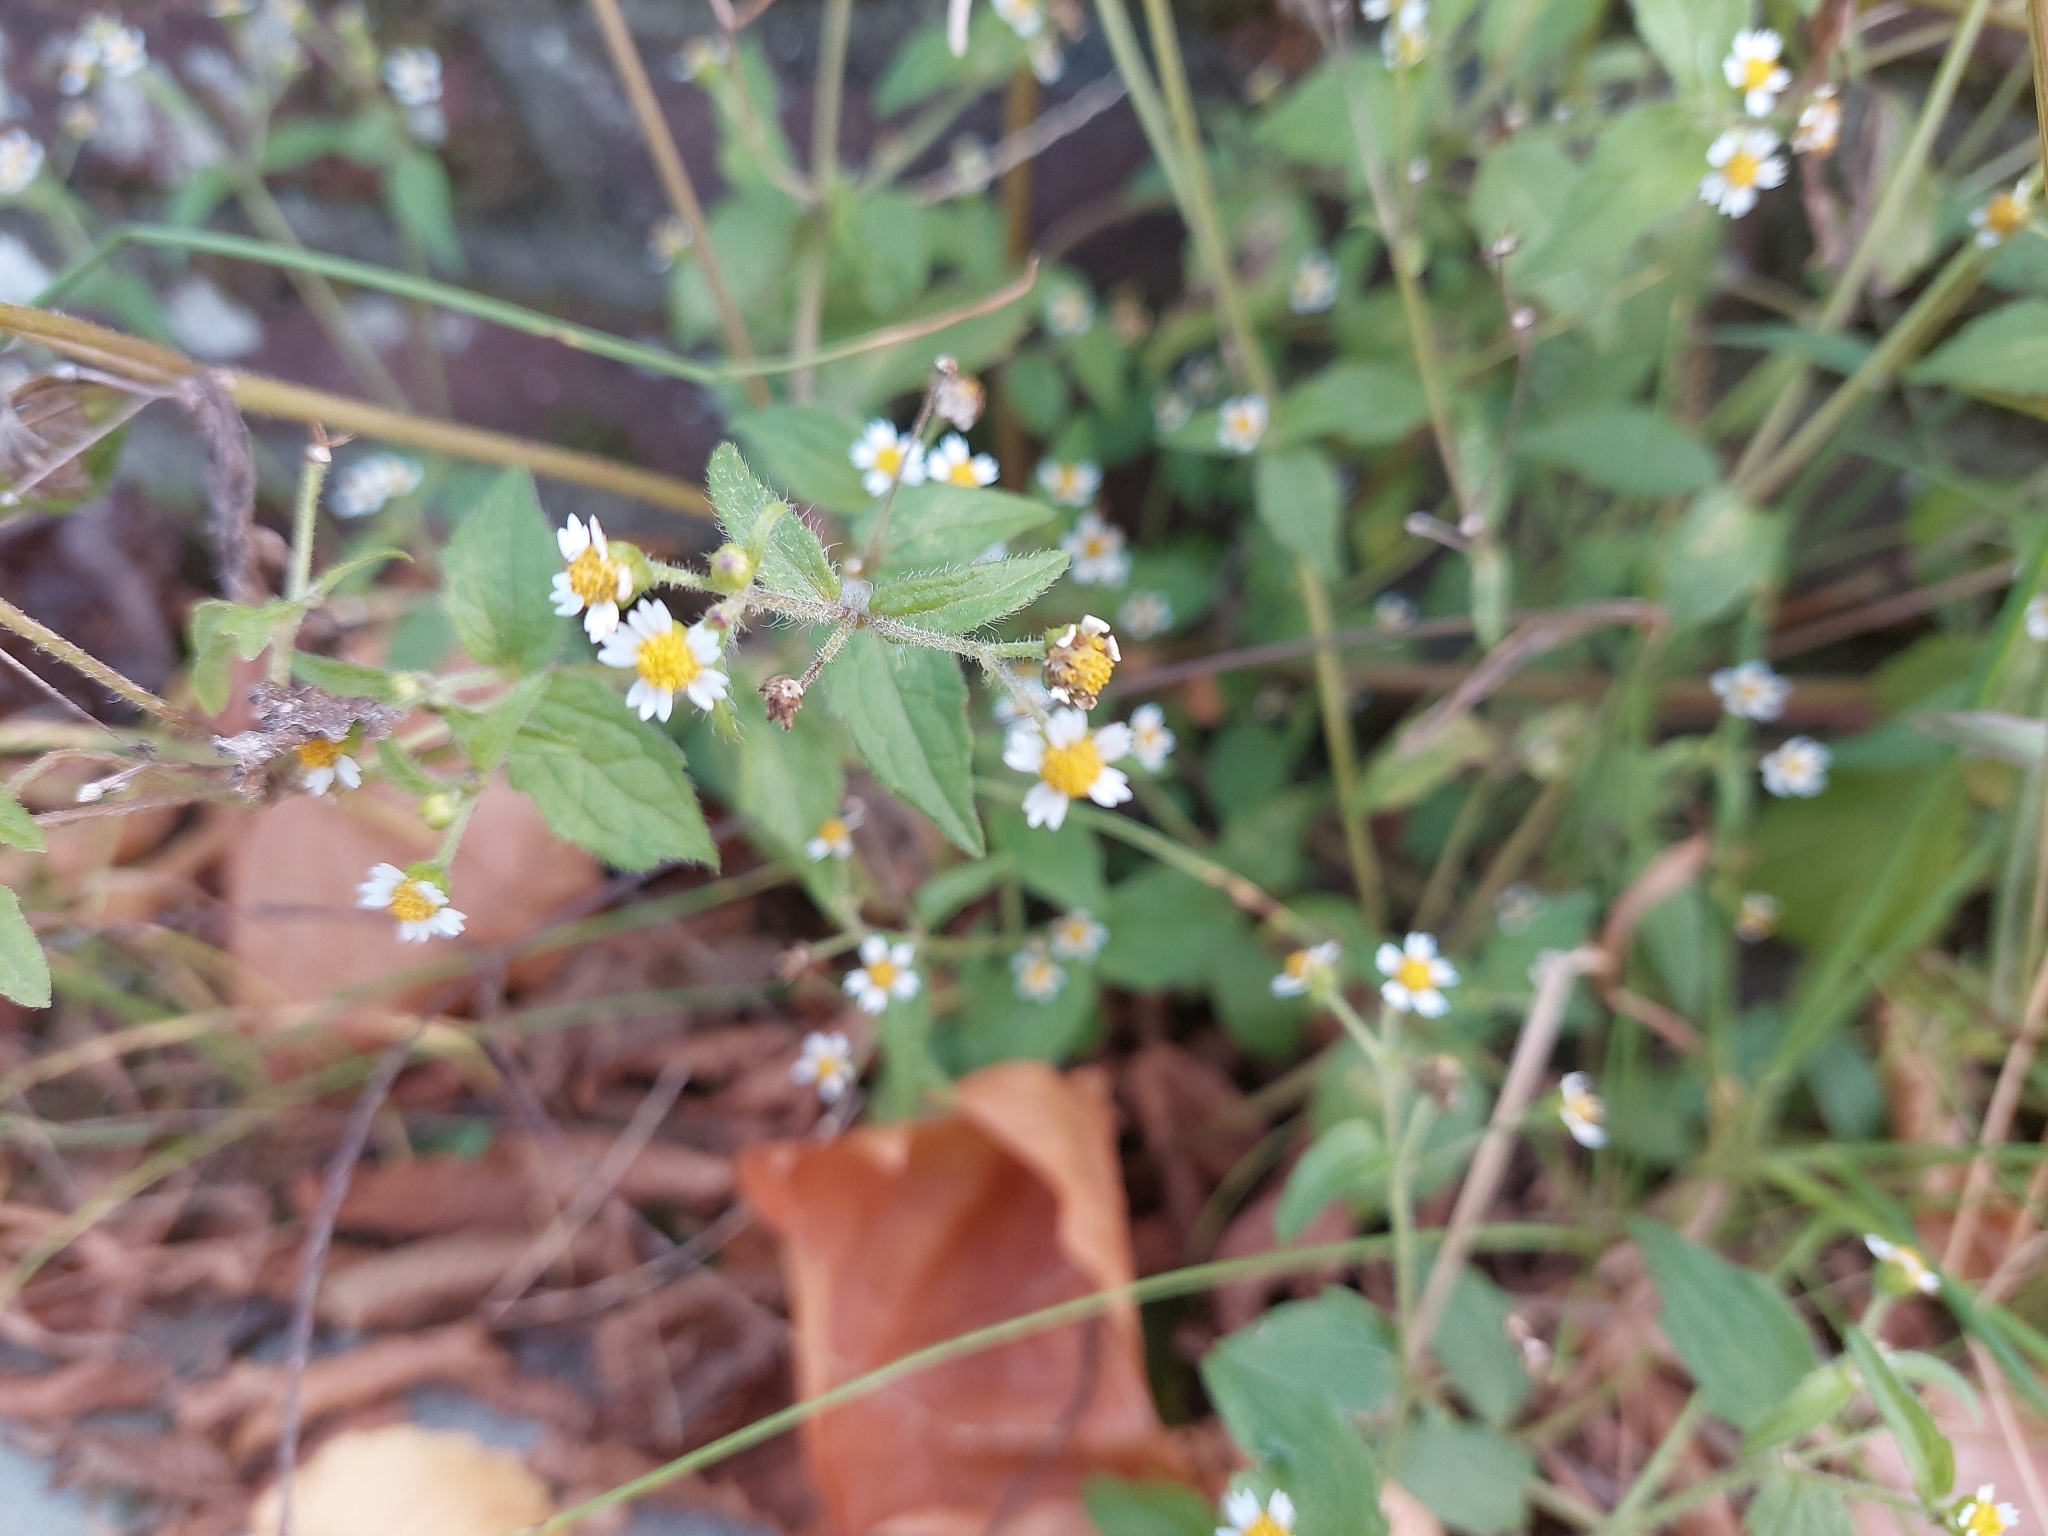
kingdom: Plantae
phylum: Tracheophyta
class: Magnoliopsida
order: Asterales
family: Asteraceae
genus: Galinsoga
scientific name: Galinsoga quadriradiata
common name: Shaggy soldier
